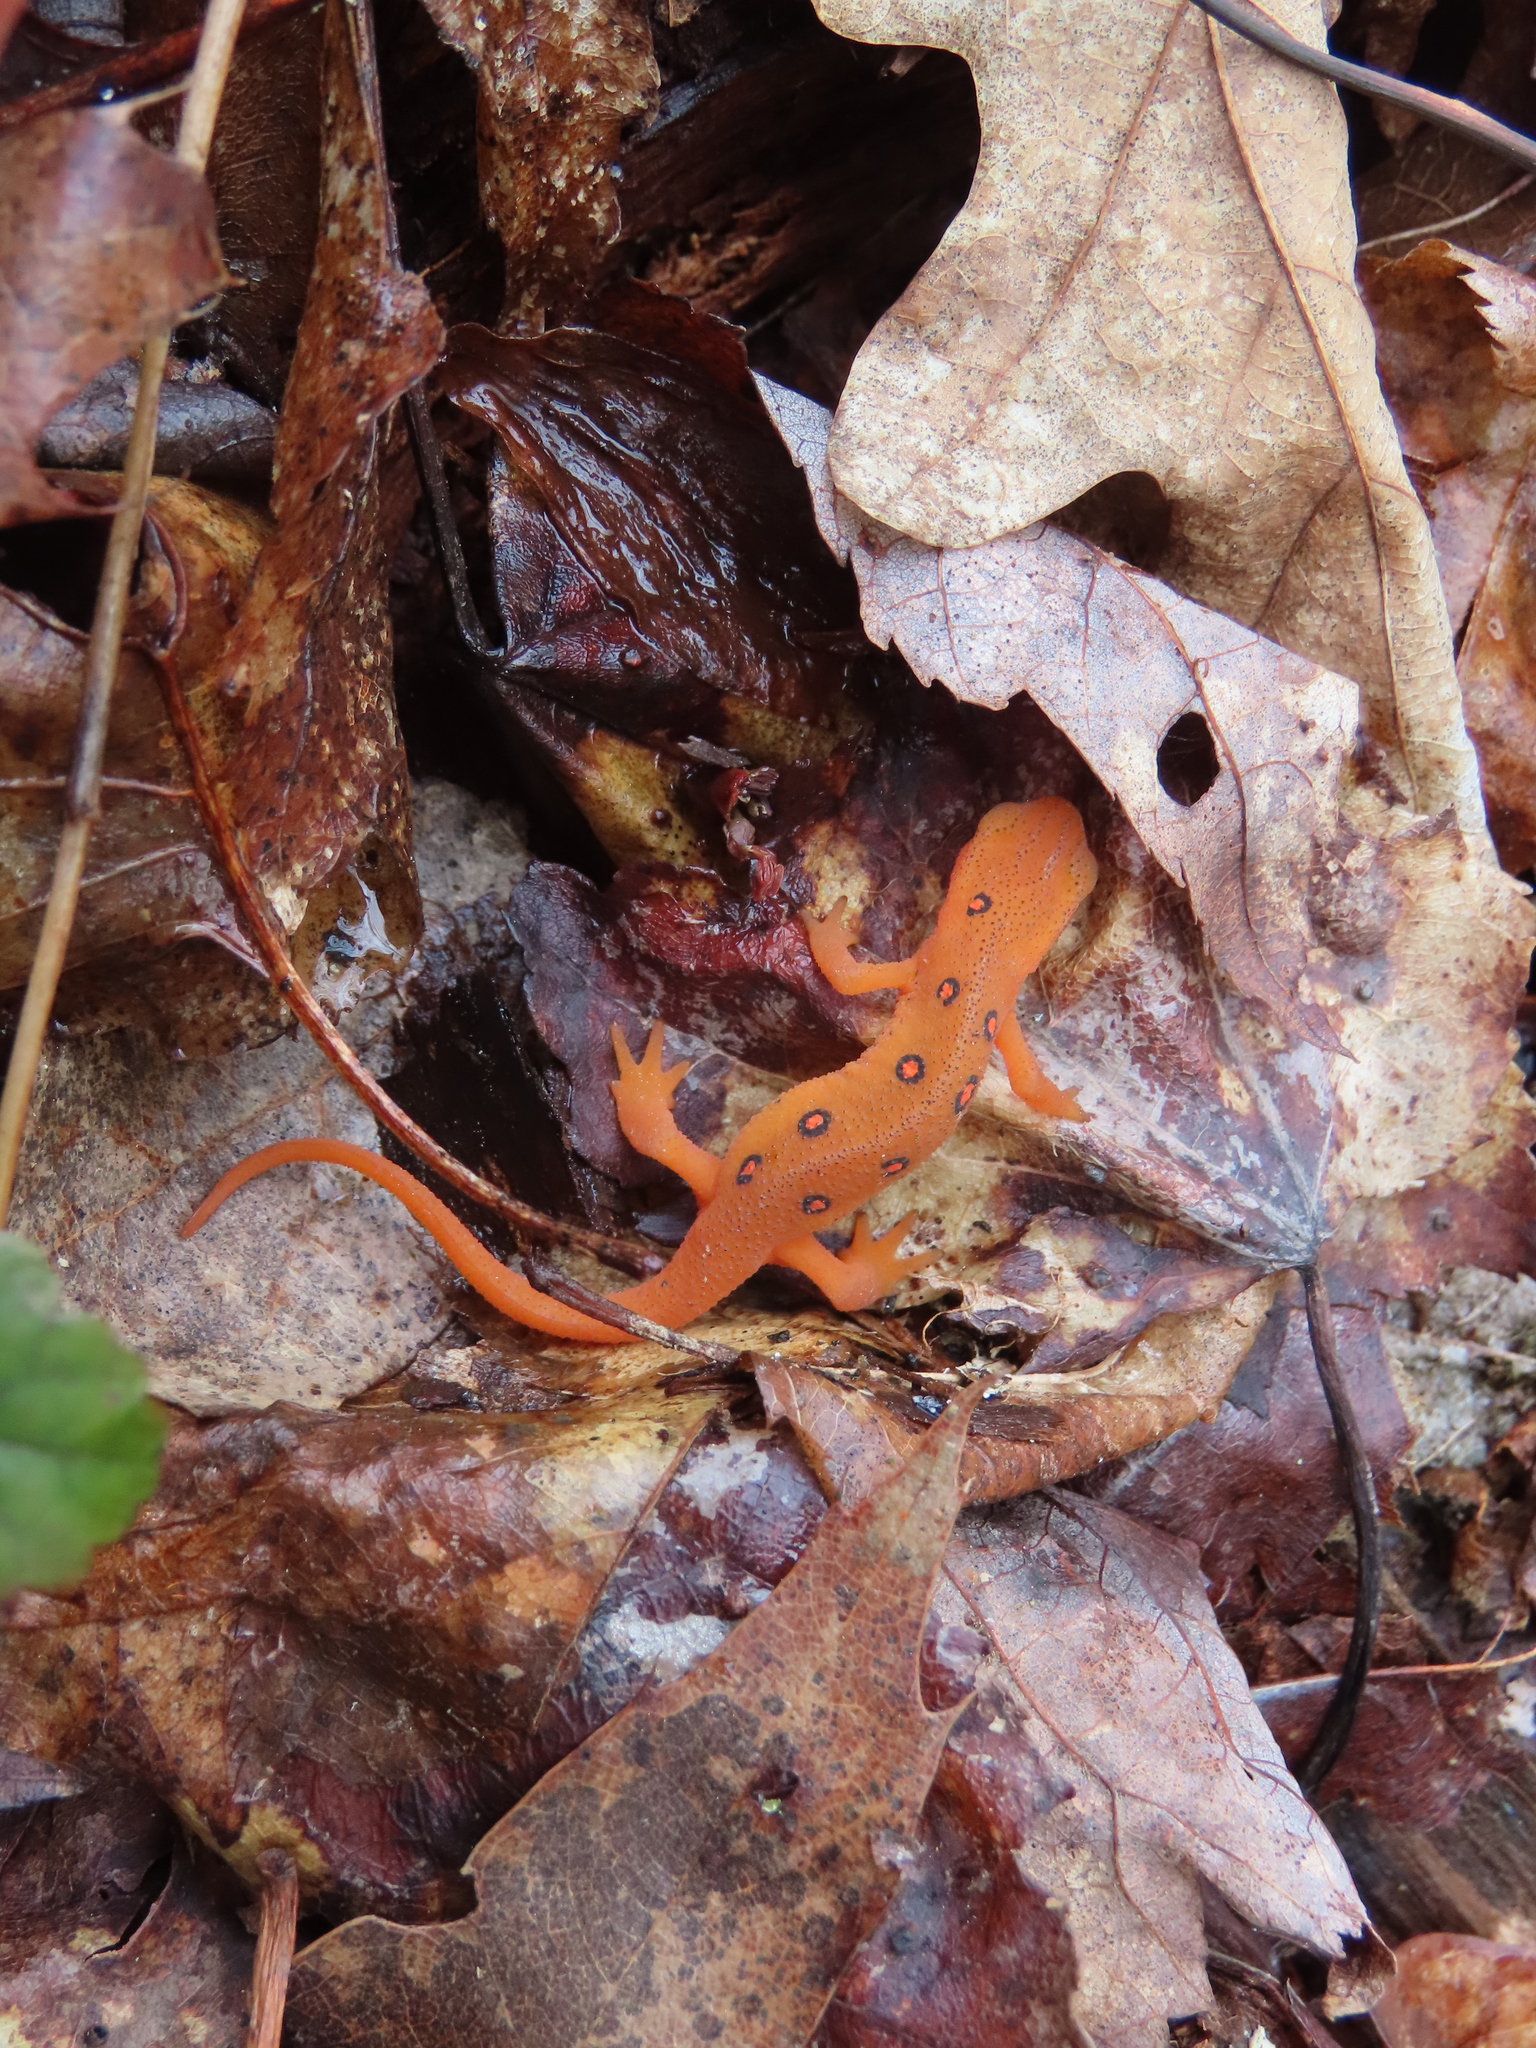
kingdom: Animalia
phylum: Chordata
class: Amphibia
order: Caudata
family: Salamandridae
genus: Notophthalmus
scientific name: Notophthalmus viridescens
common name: Eastern newt
